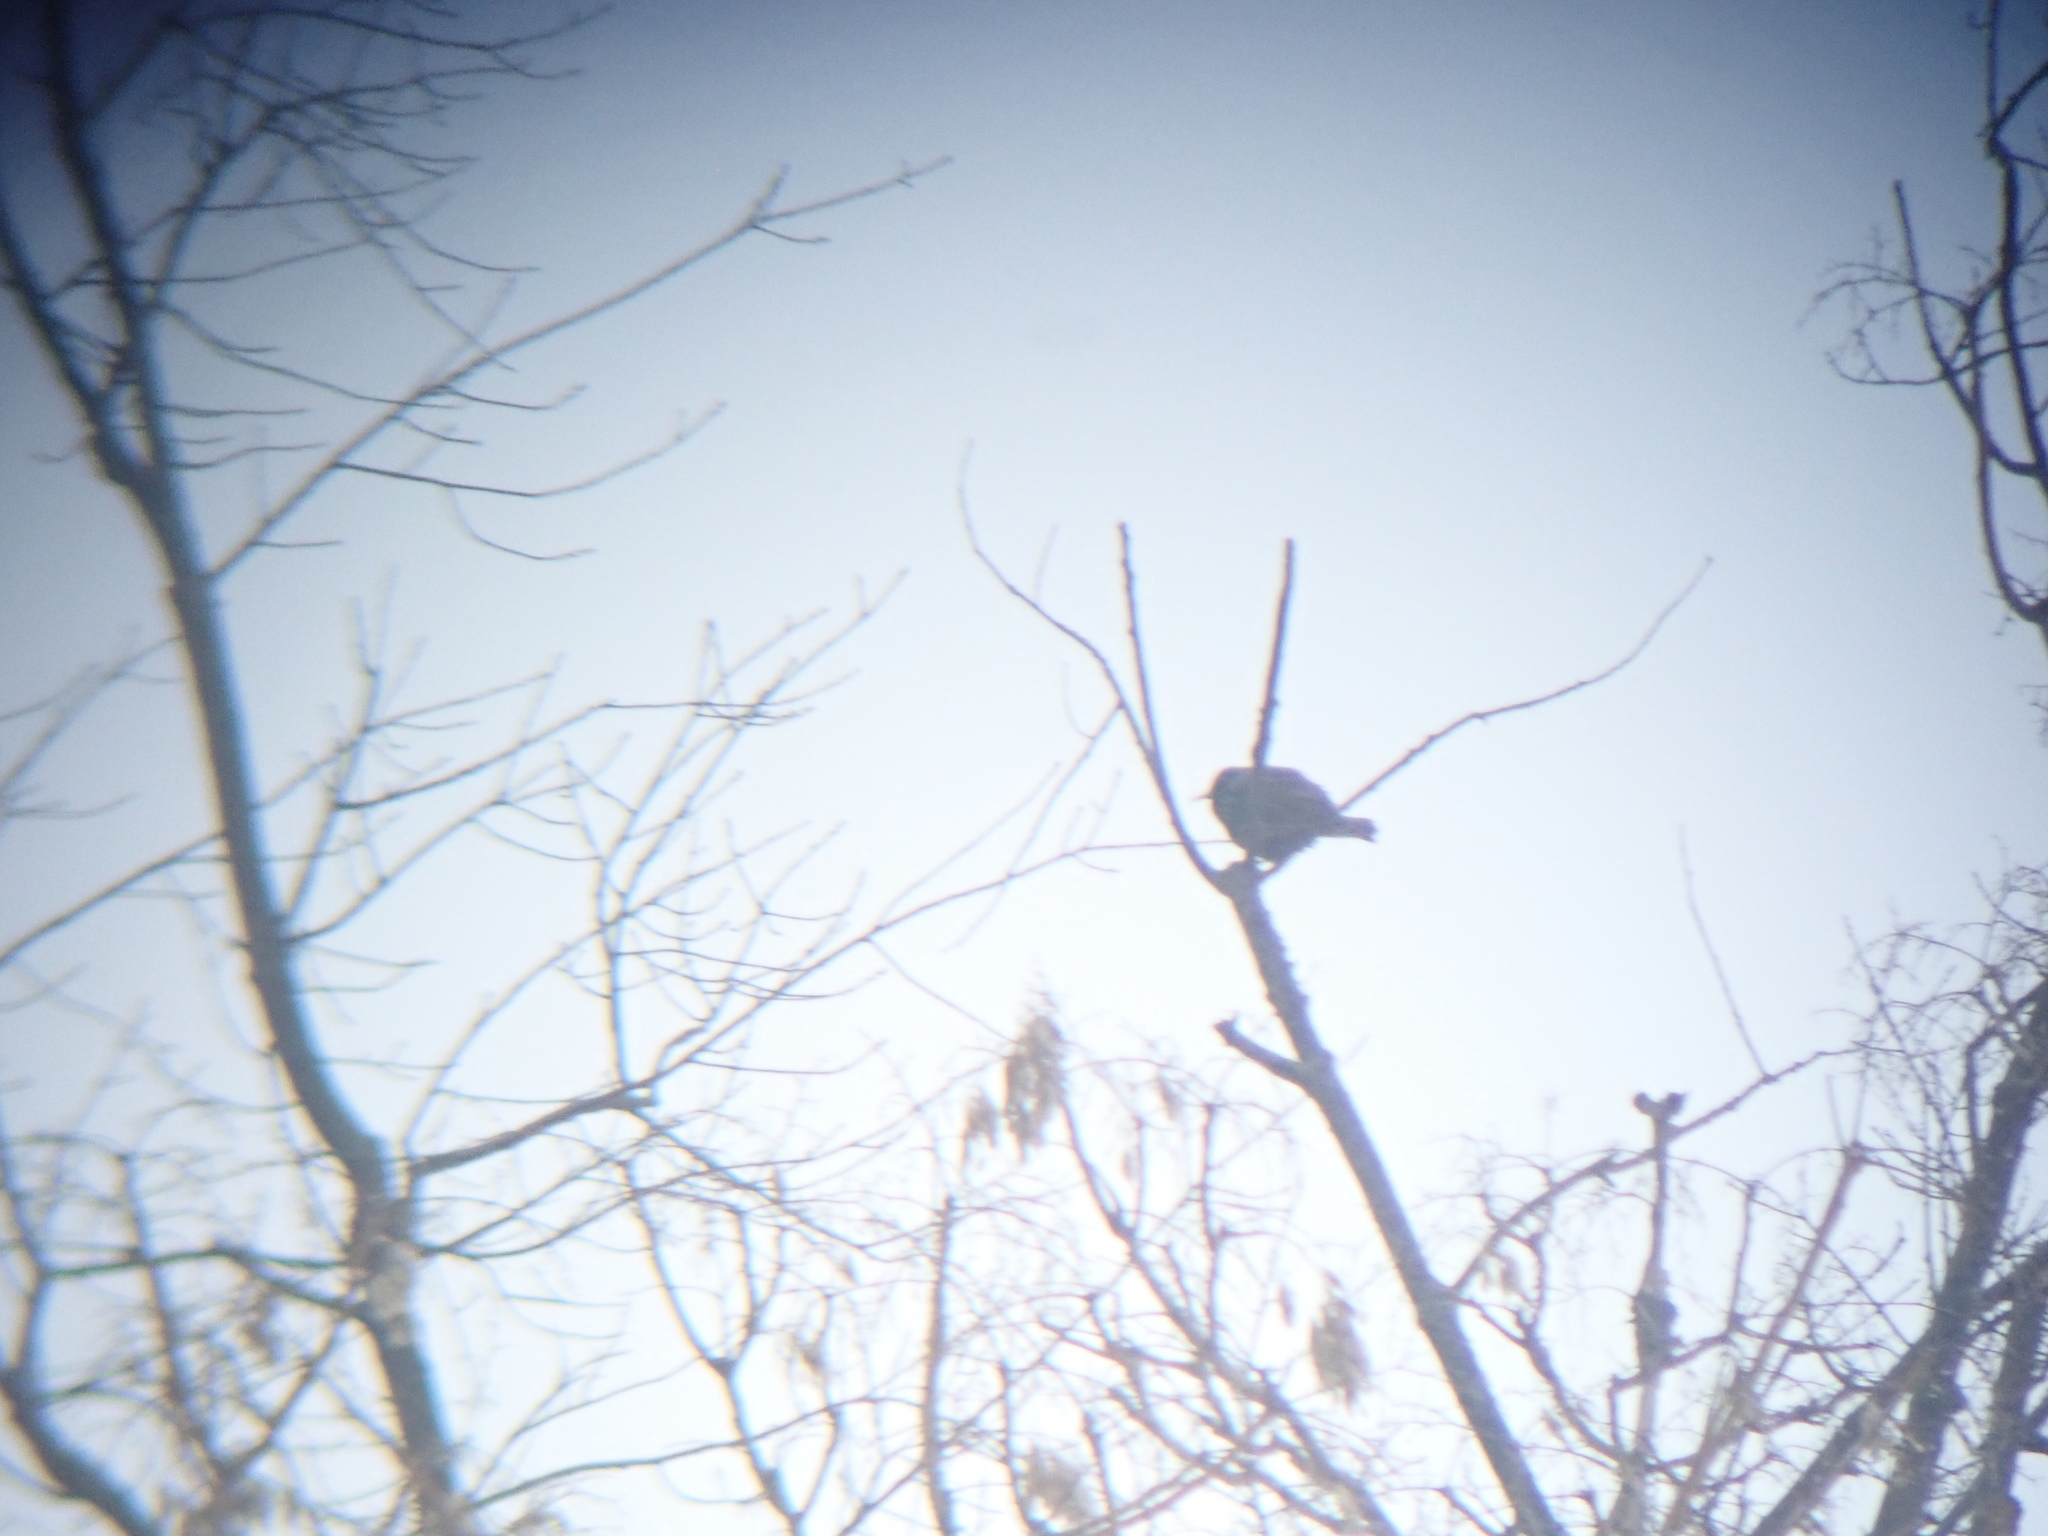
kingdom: Animalia
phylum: Chordata
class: Aves
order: Passeriformes
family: Sturnidae
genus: Sturnus
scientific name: Sturnus vulgaris
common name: Common starling
